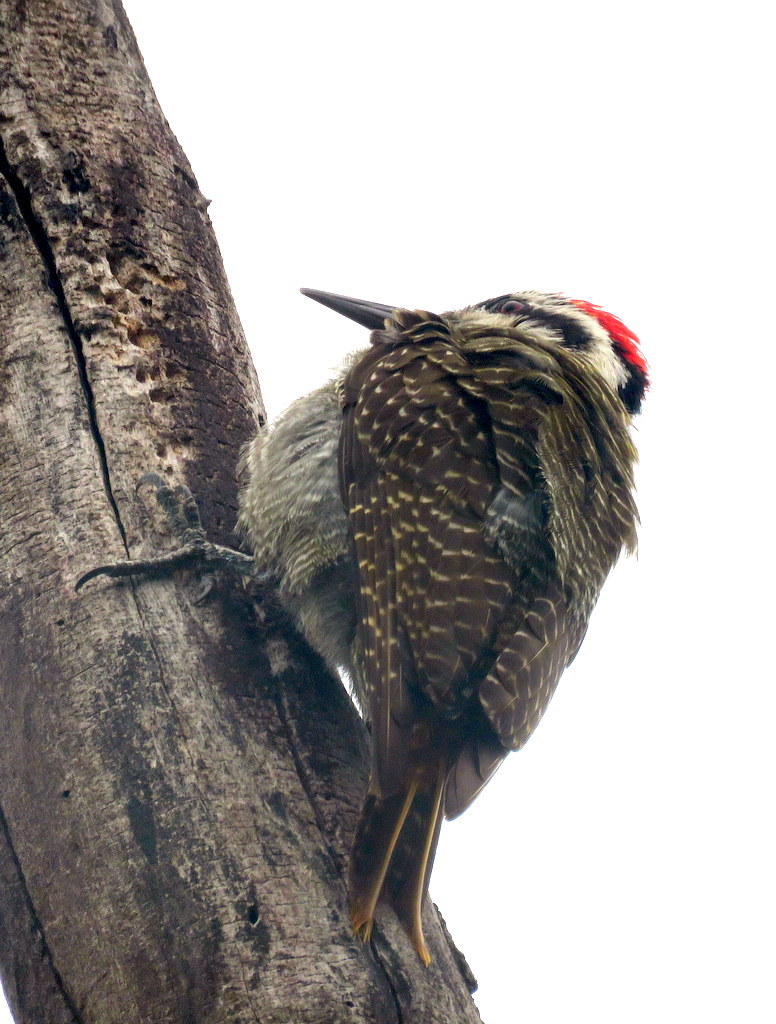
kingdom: Animalia
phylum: Chordata
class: Aves
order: Piciformes
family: Picidae
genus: Chloropicus
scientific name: Chloropicus namaquus
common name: Bearded woodpecker
